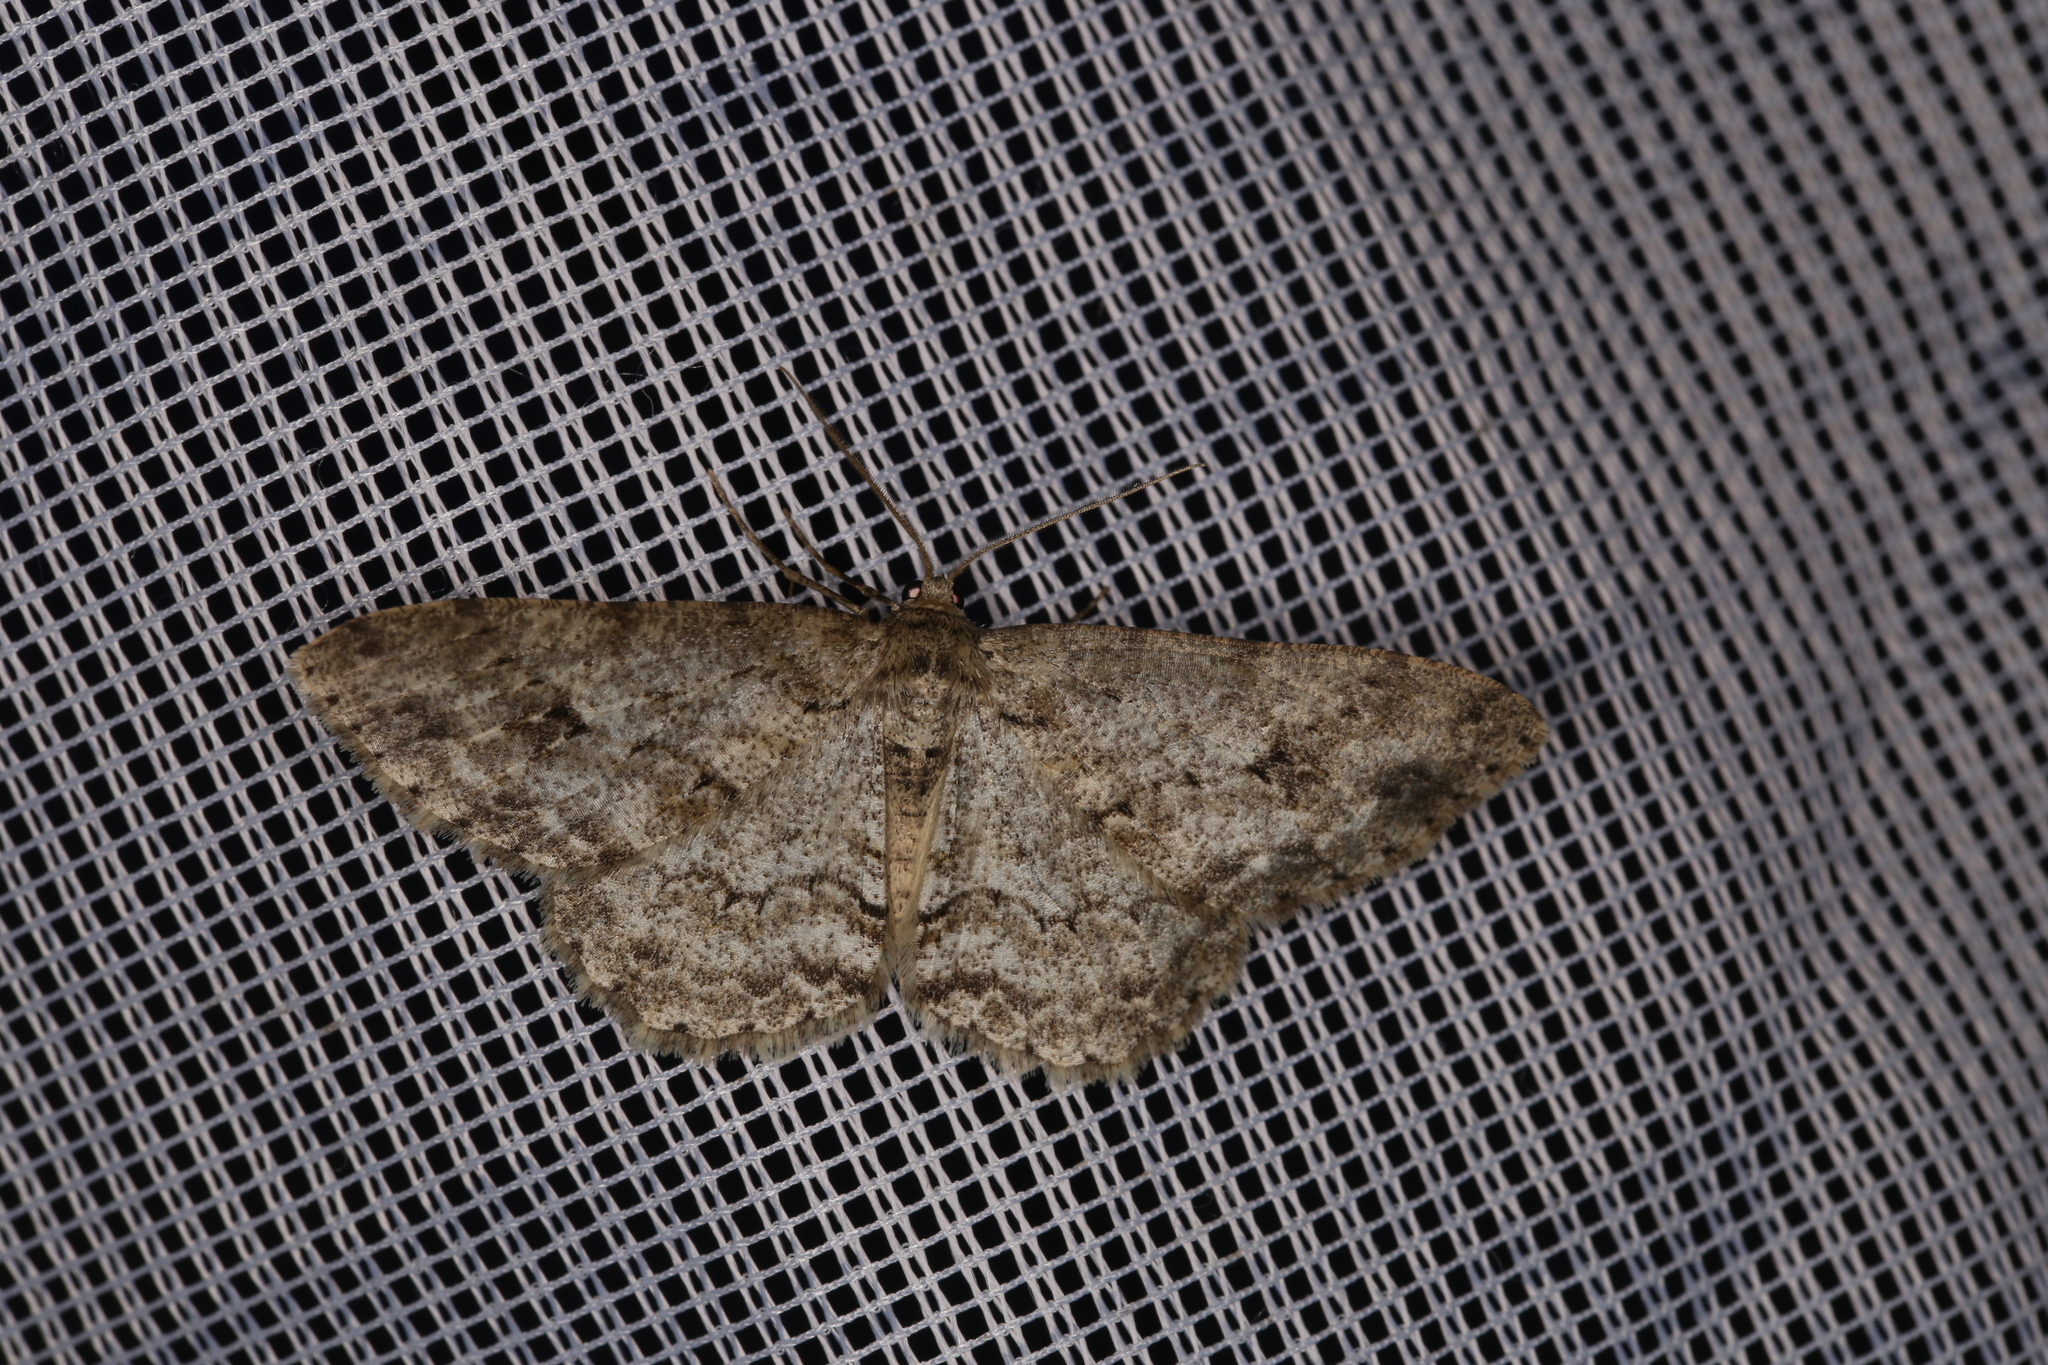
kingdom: Animalia
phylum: Arthropoda
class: Insecta
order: Lepidoptera
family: Geometridae
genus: Ectropis
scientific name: Ectropis crepuscularia
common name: Engrailed
